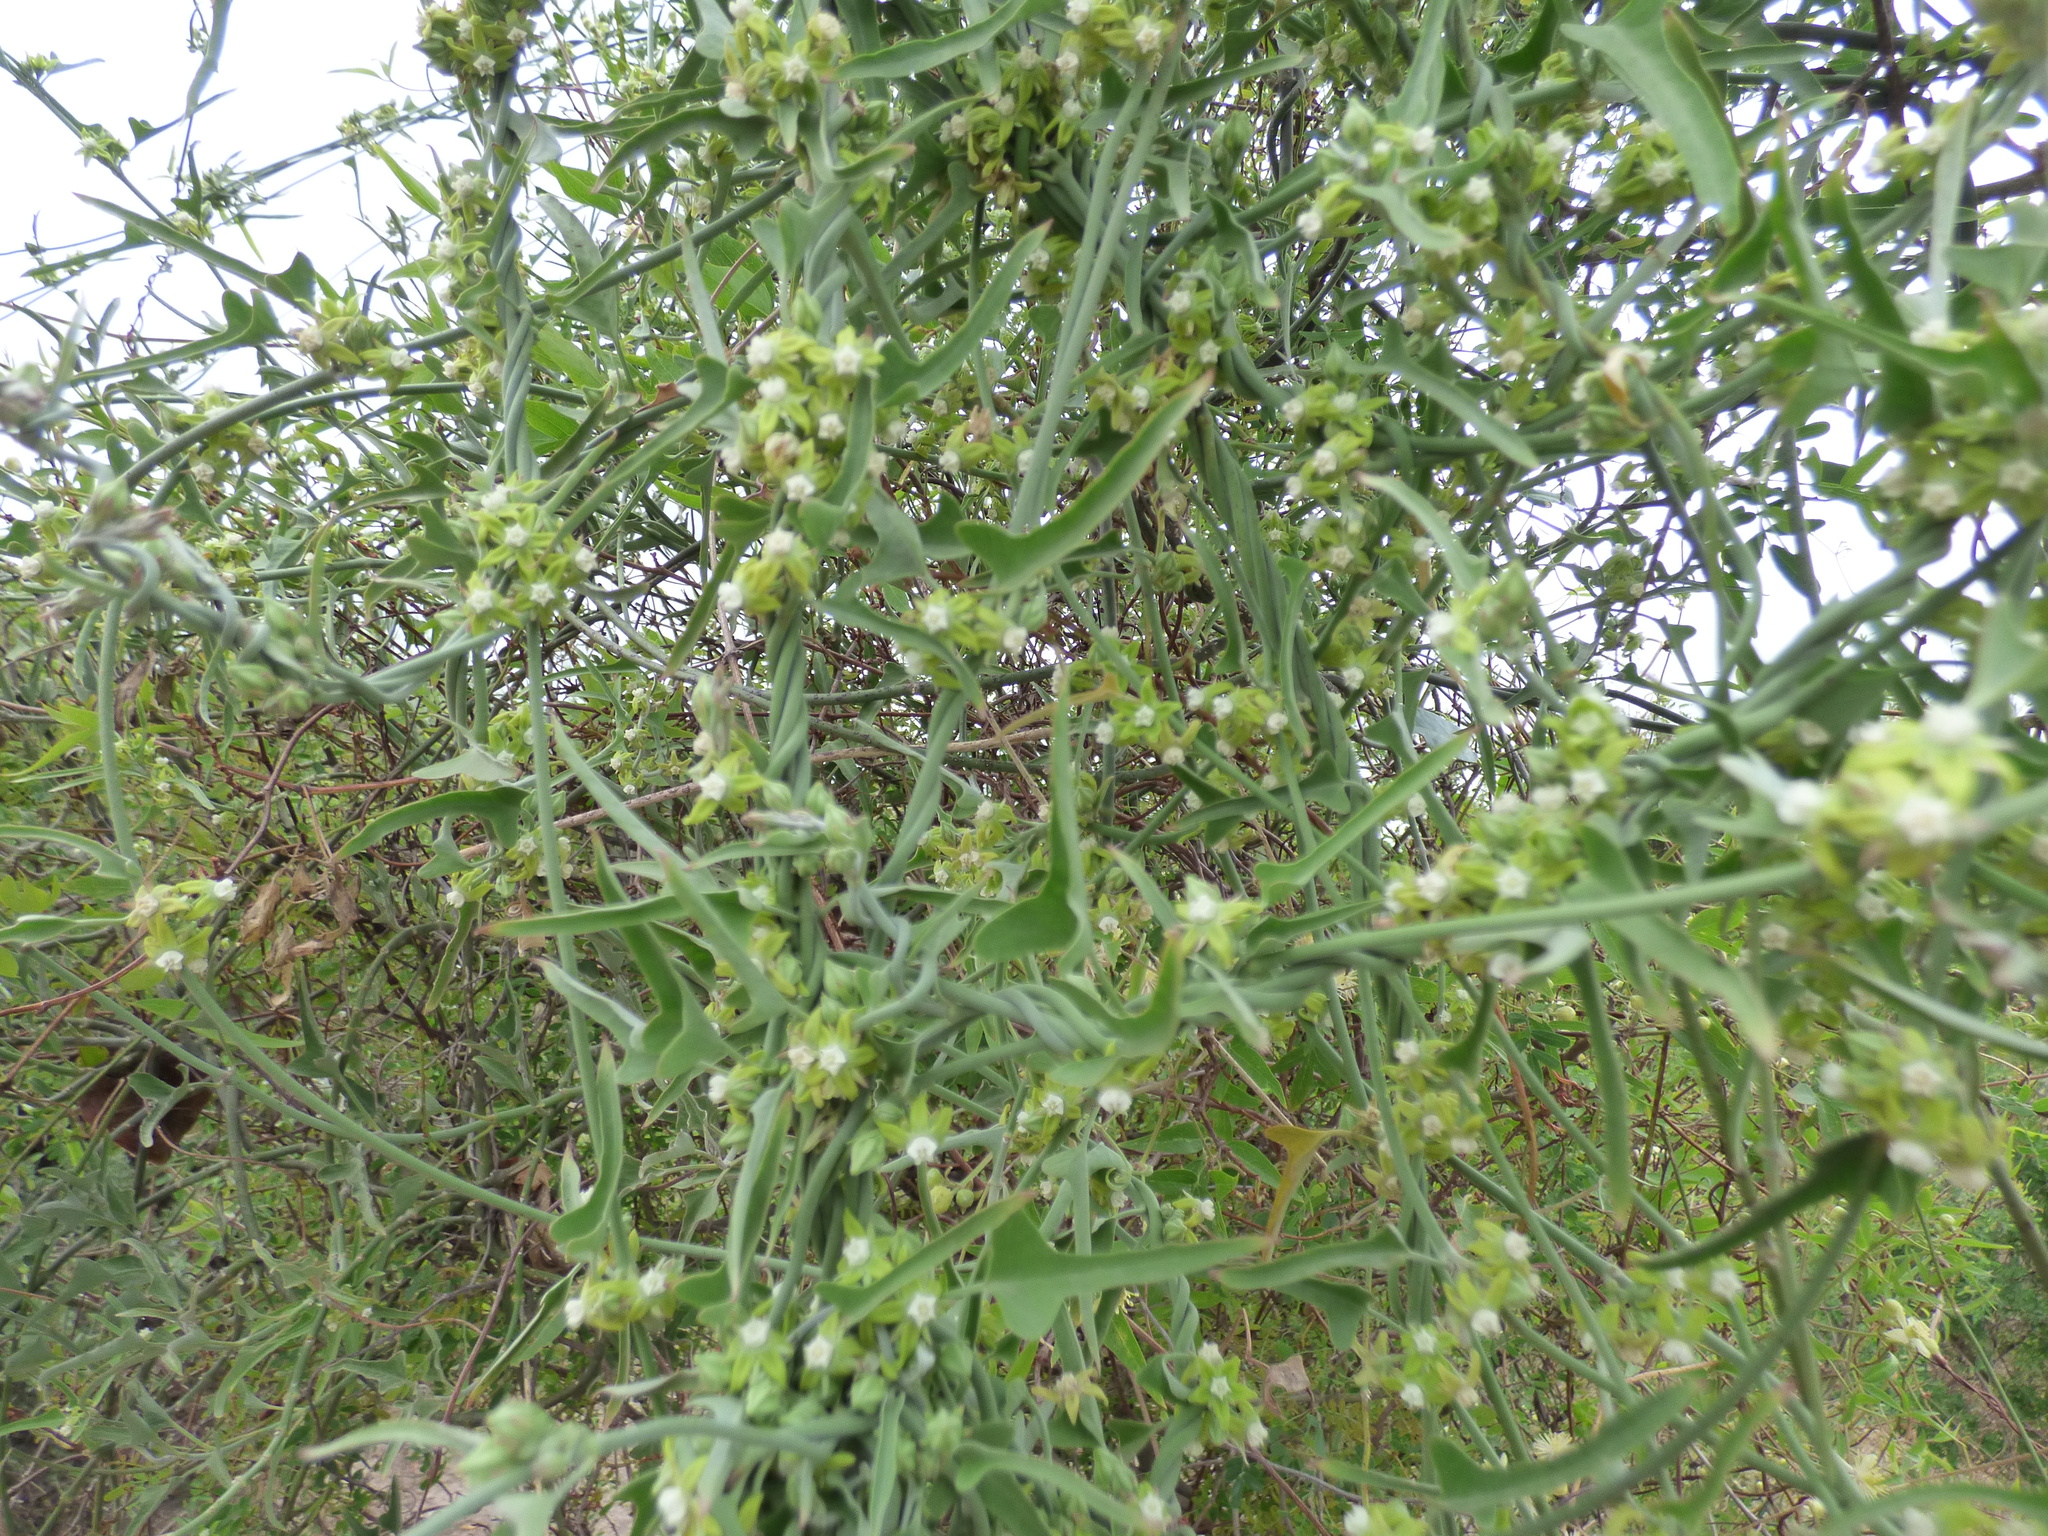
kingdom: Plantae
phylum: Tracheophyta
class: Magnoliopsida
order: Gentianales
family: Apocynaceae
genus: Araujia
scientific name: Araujia brachystephana
